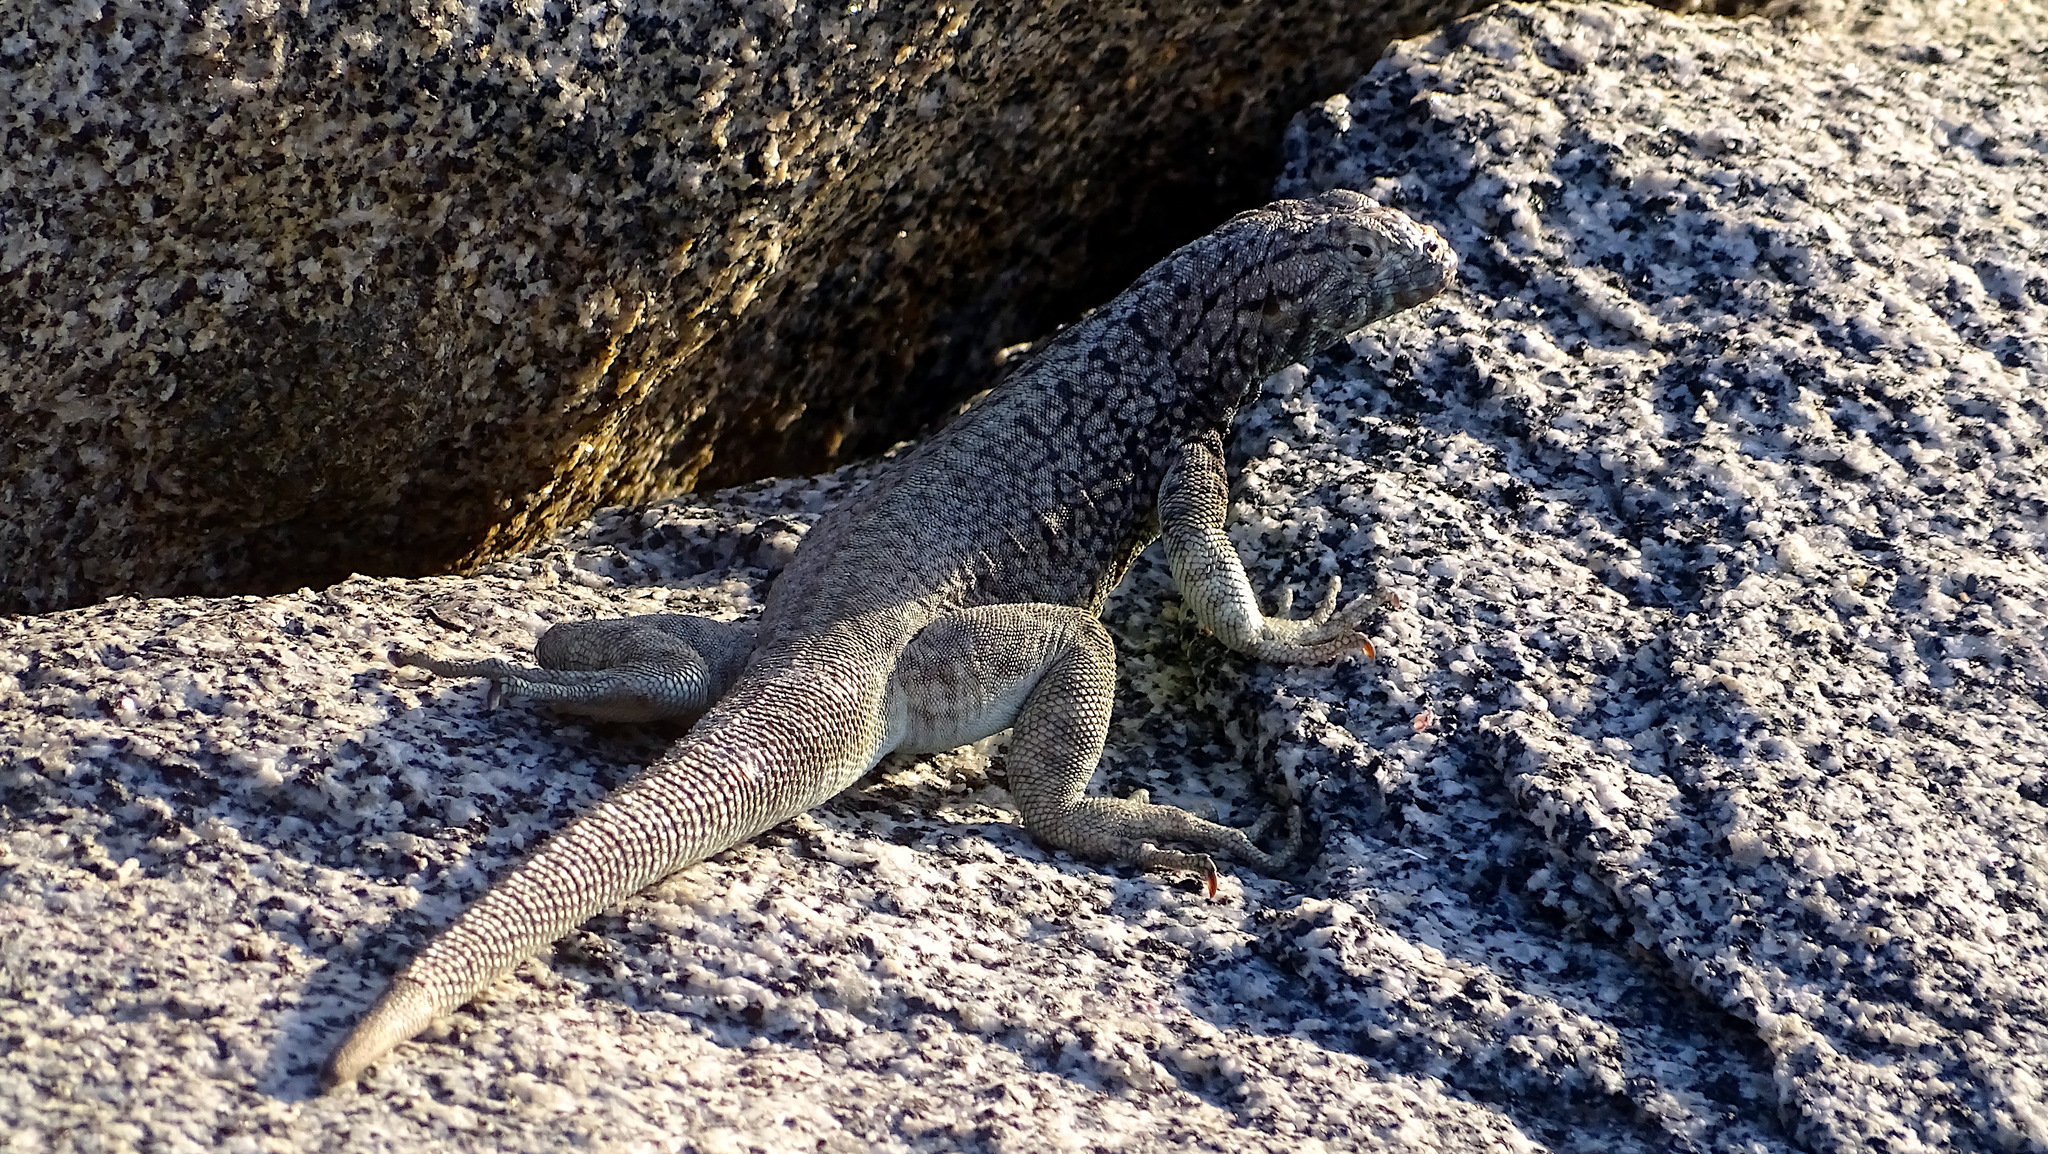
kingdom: Animalia
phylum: Chordata
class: Squamata
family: Tropiduridae
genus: Microlophus
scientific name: Microlophus atacamensis
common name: Atacamen pacific iguana
